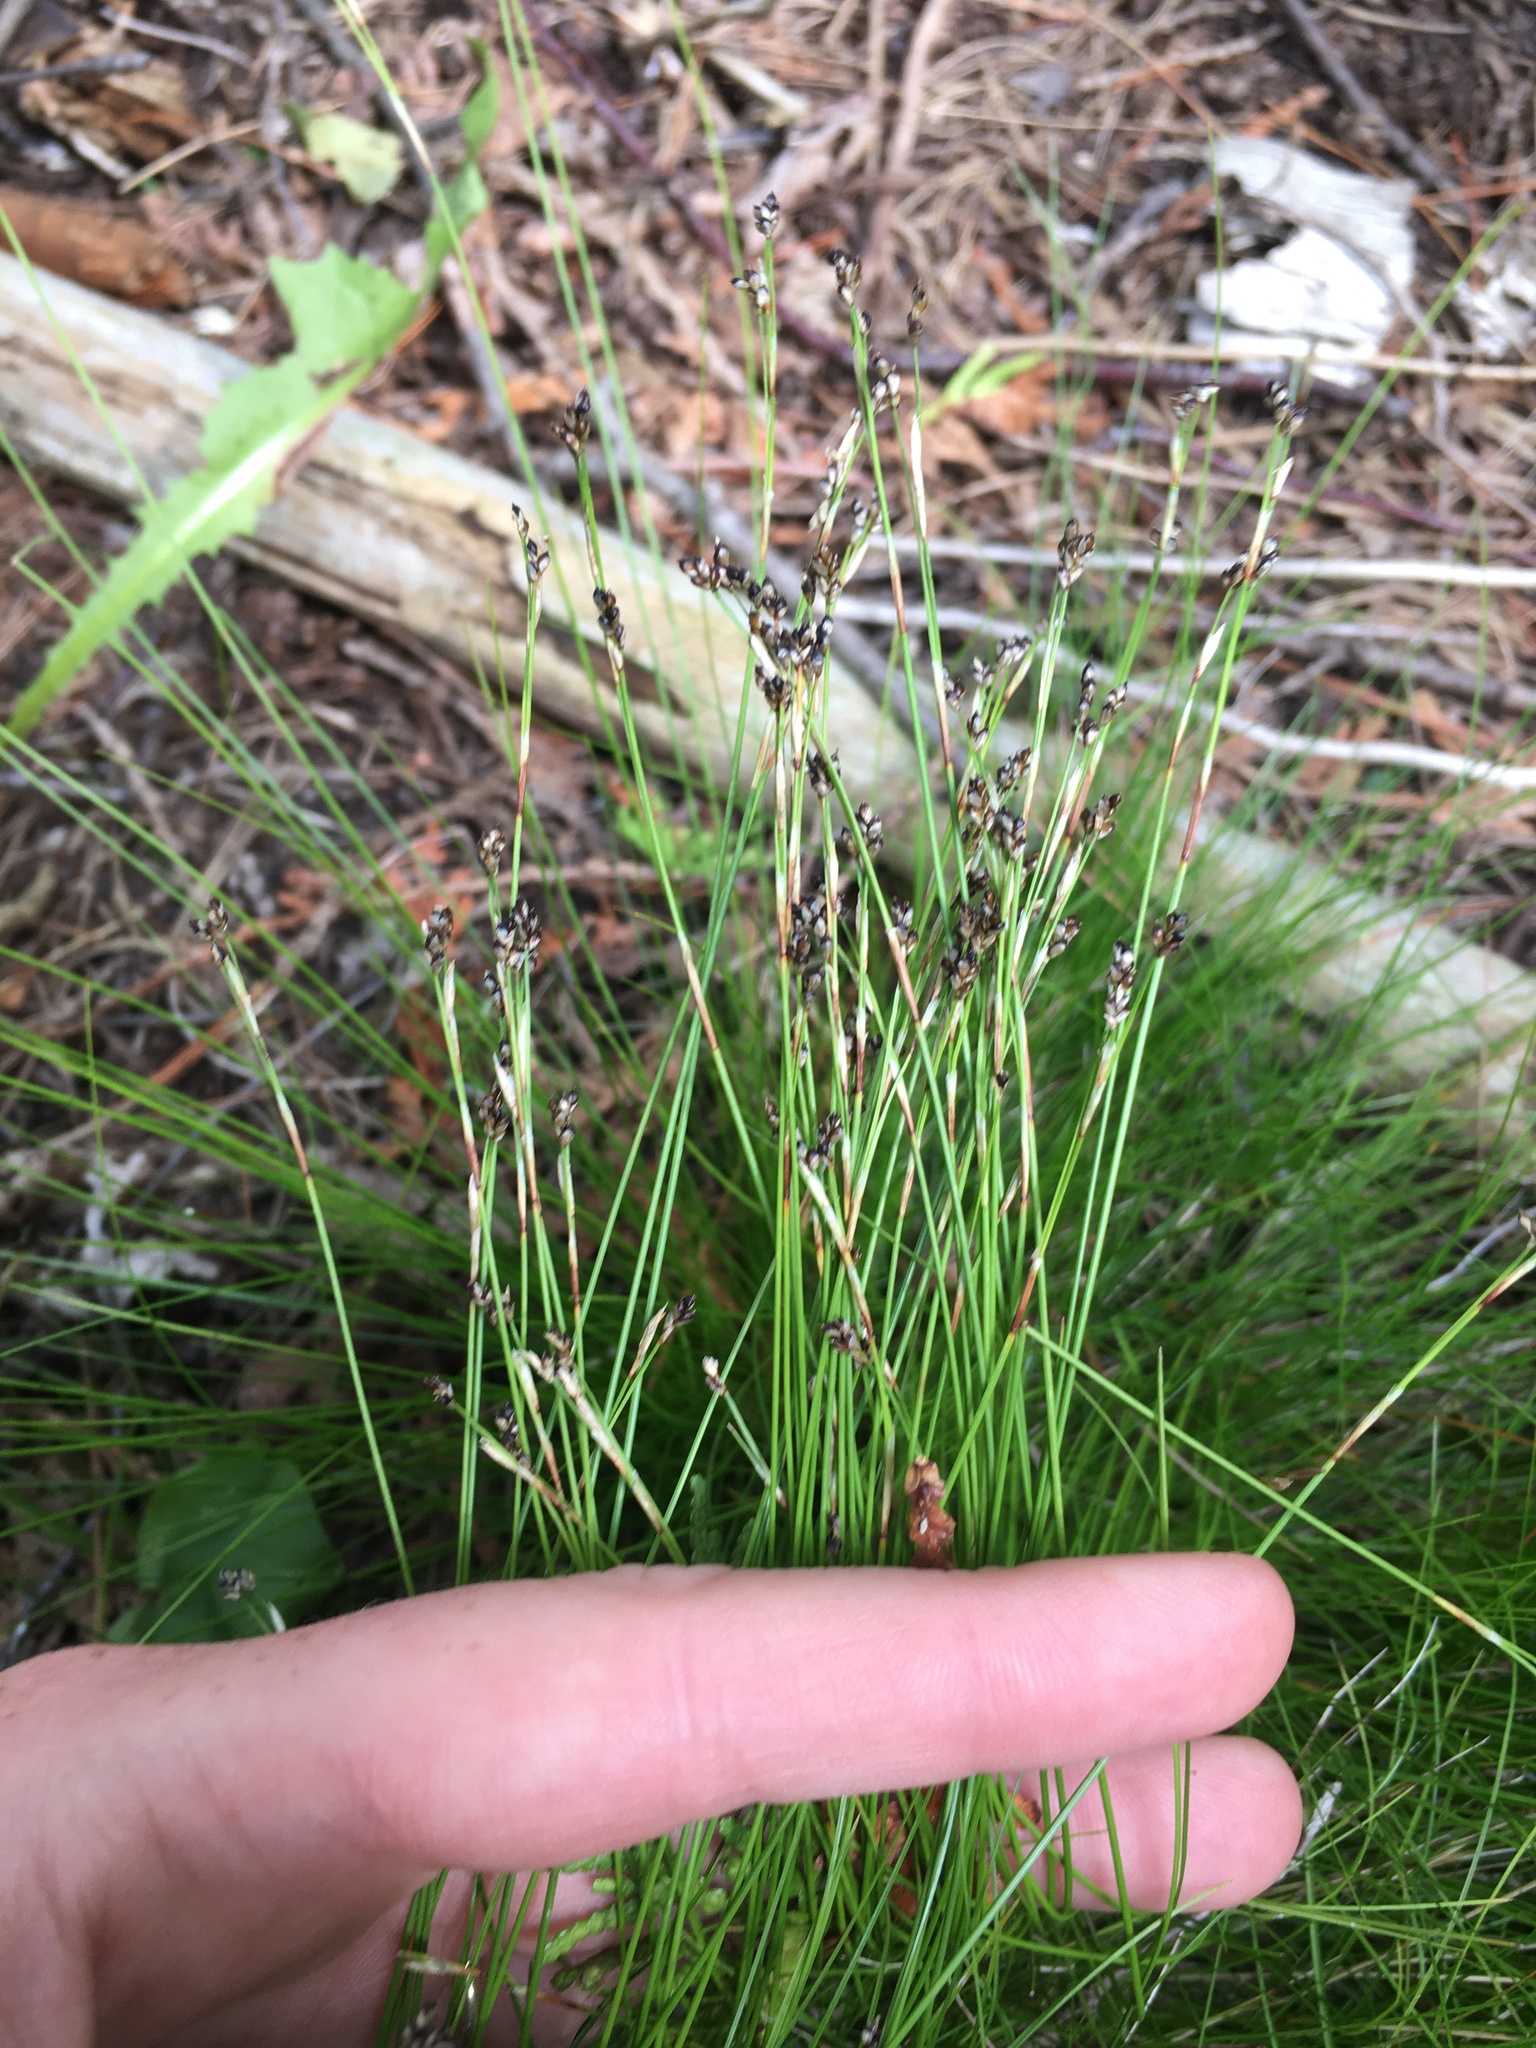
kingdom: Plantae
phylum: Tracheophyta
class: Liliopsida
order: Poales
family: Cyperaceae
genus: Carex
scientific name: Carex eburnea
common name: Bristle-leaved sedge
